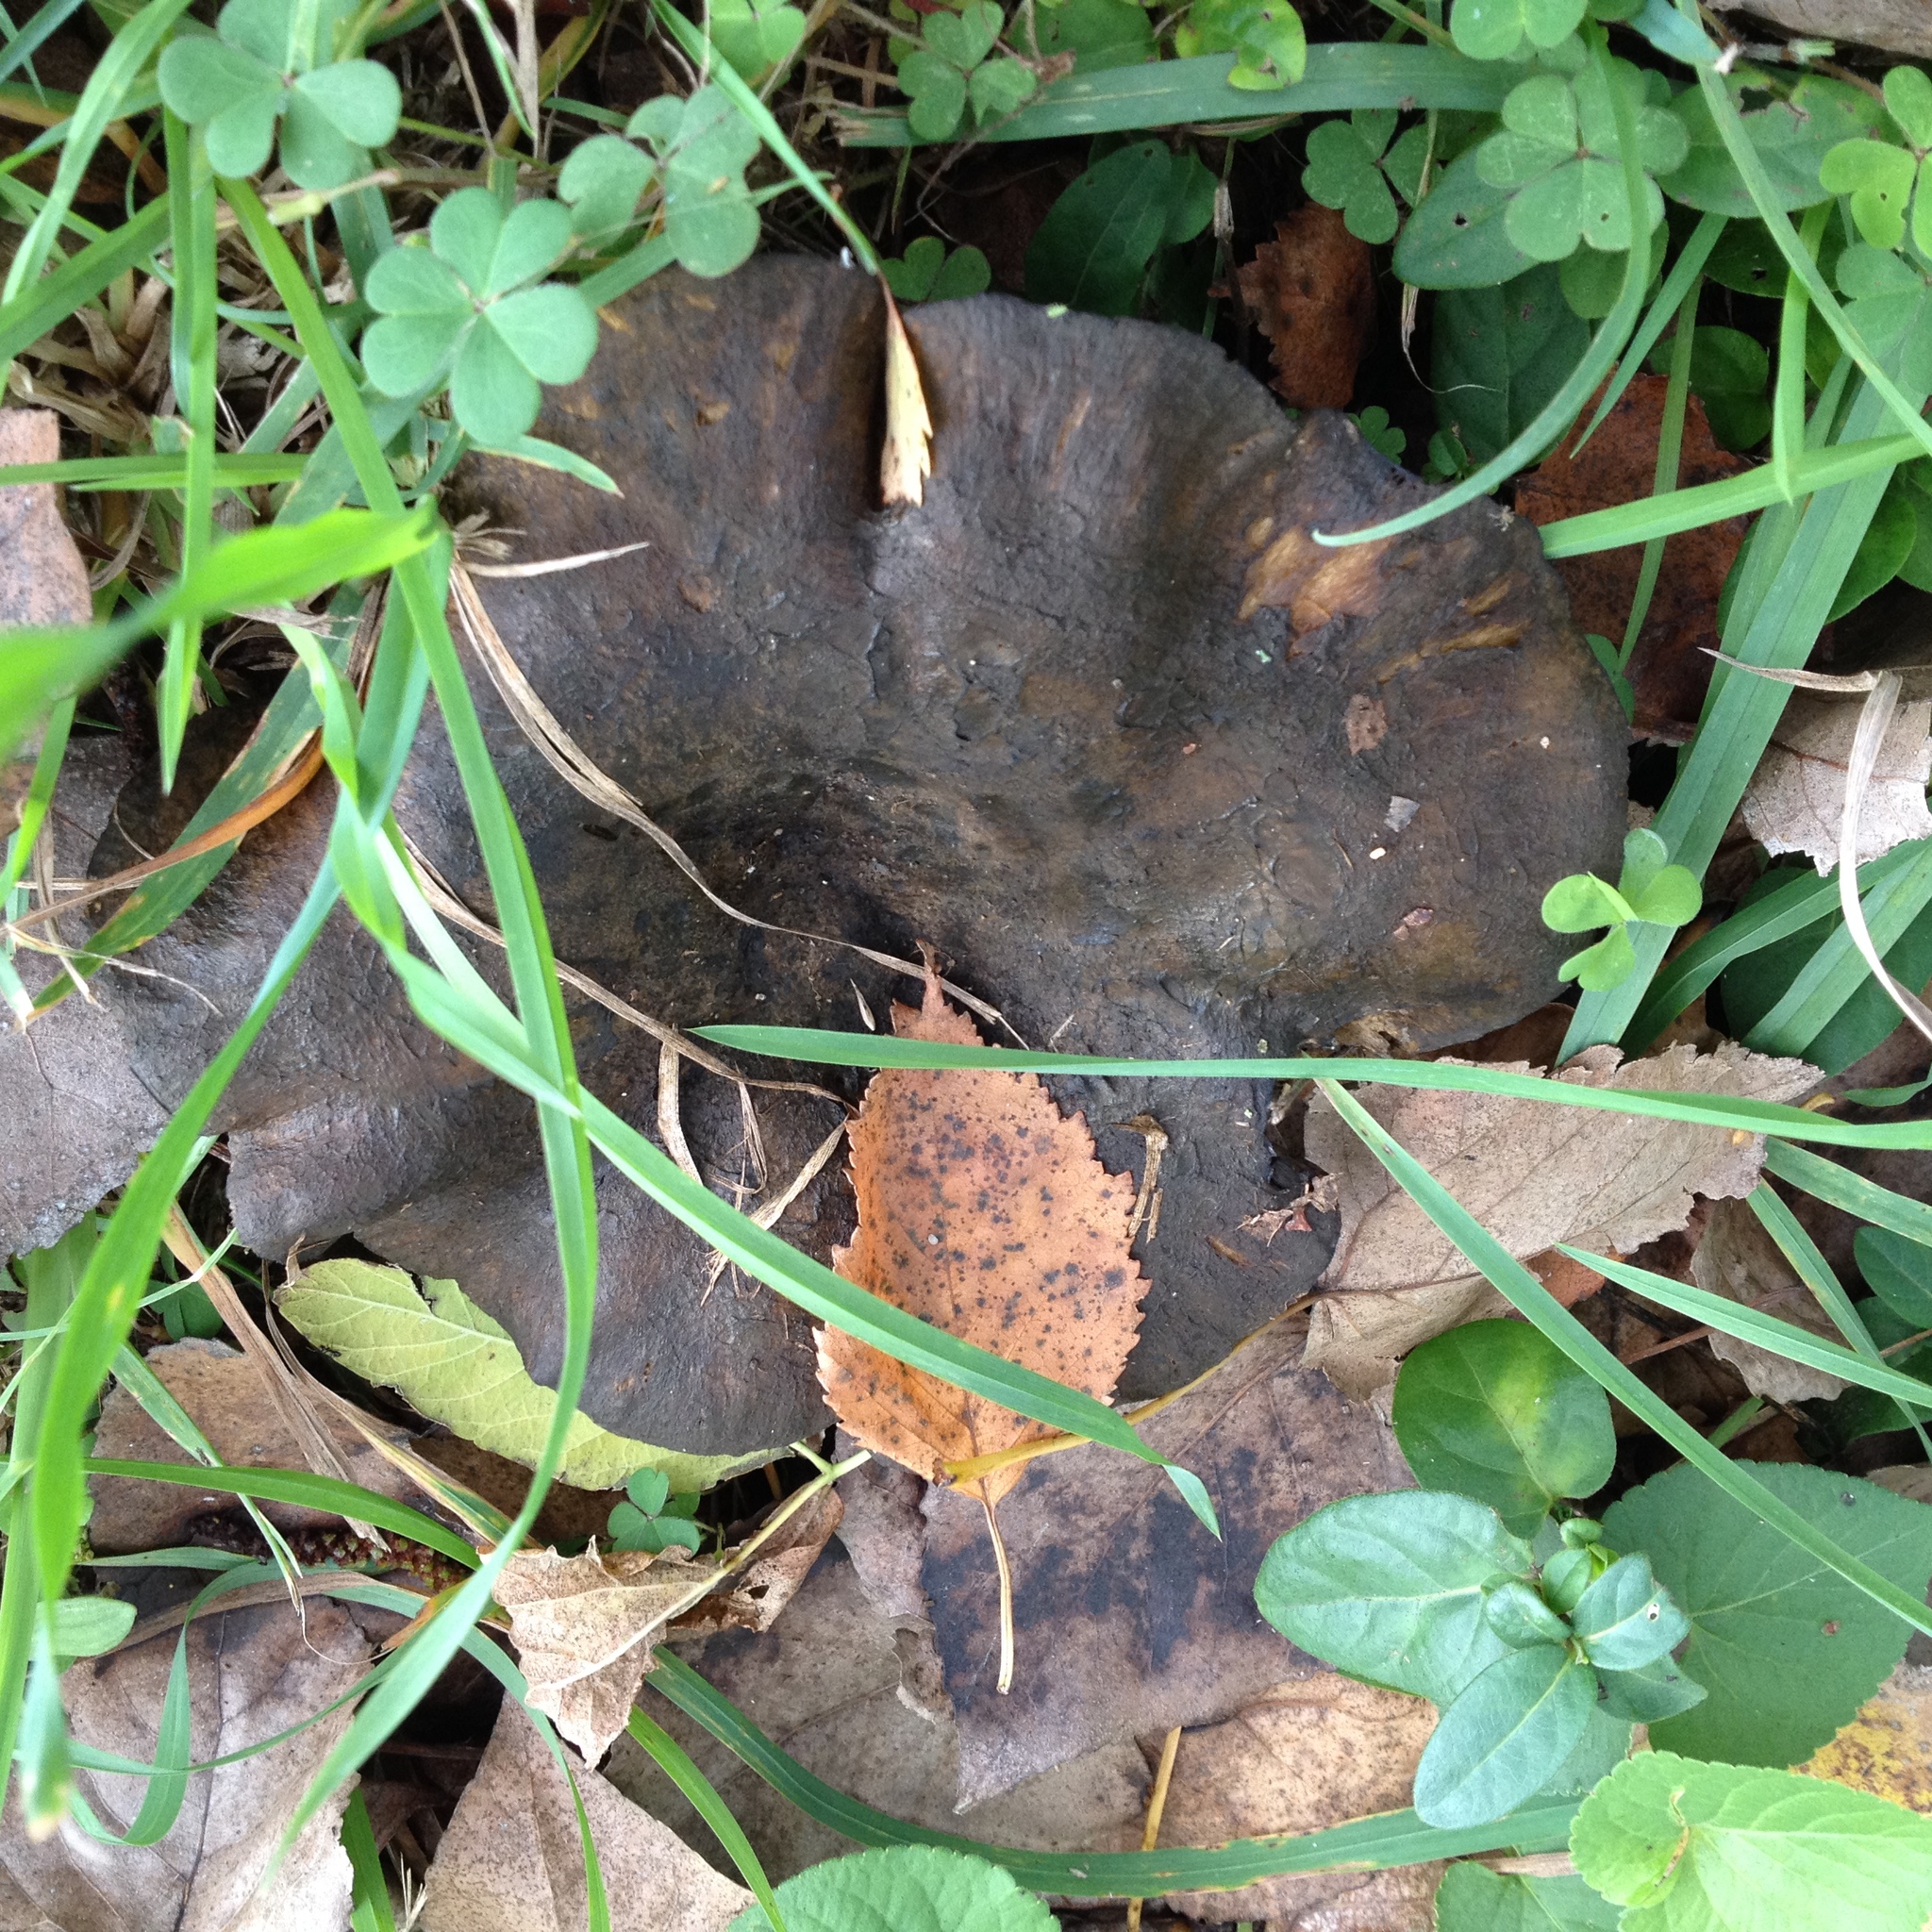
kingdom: Fungi
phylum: Basidiomycota
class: Agaricomycetes
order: Russulales
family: Russulaceae
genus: Lactarius
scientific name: Lactarius turpis
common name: Ugly milk-cap
